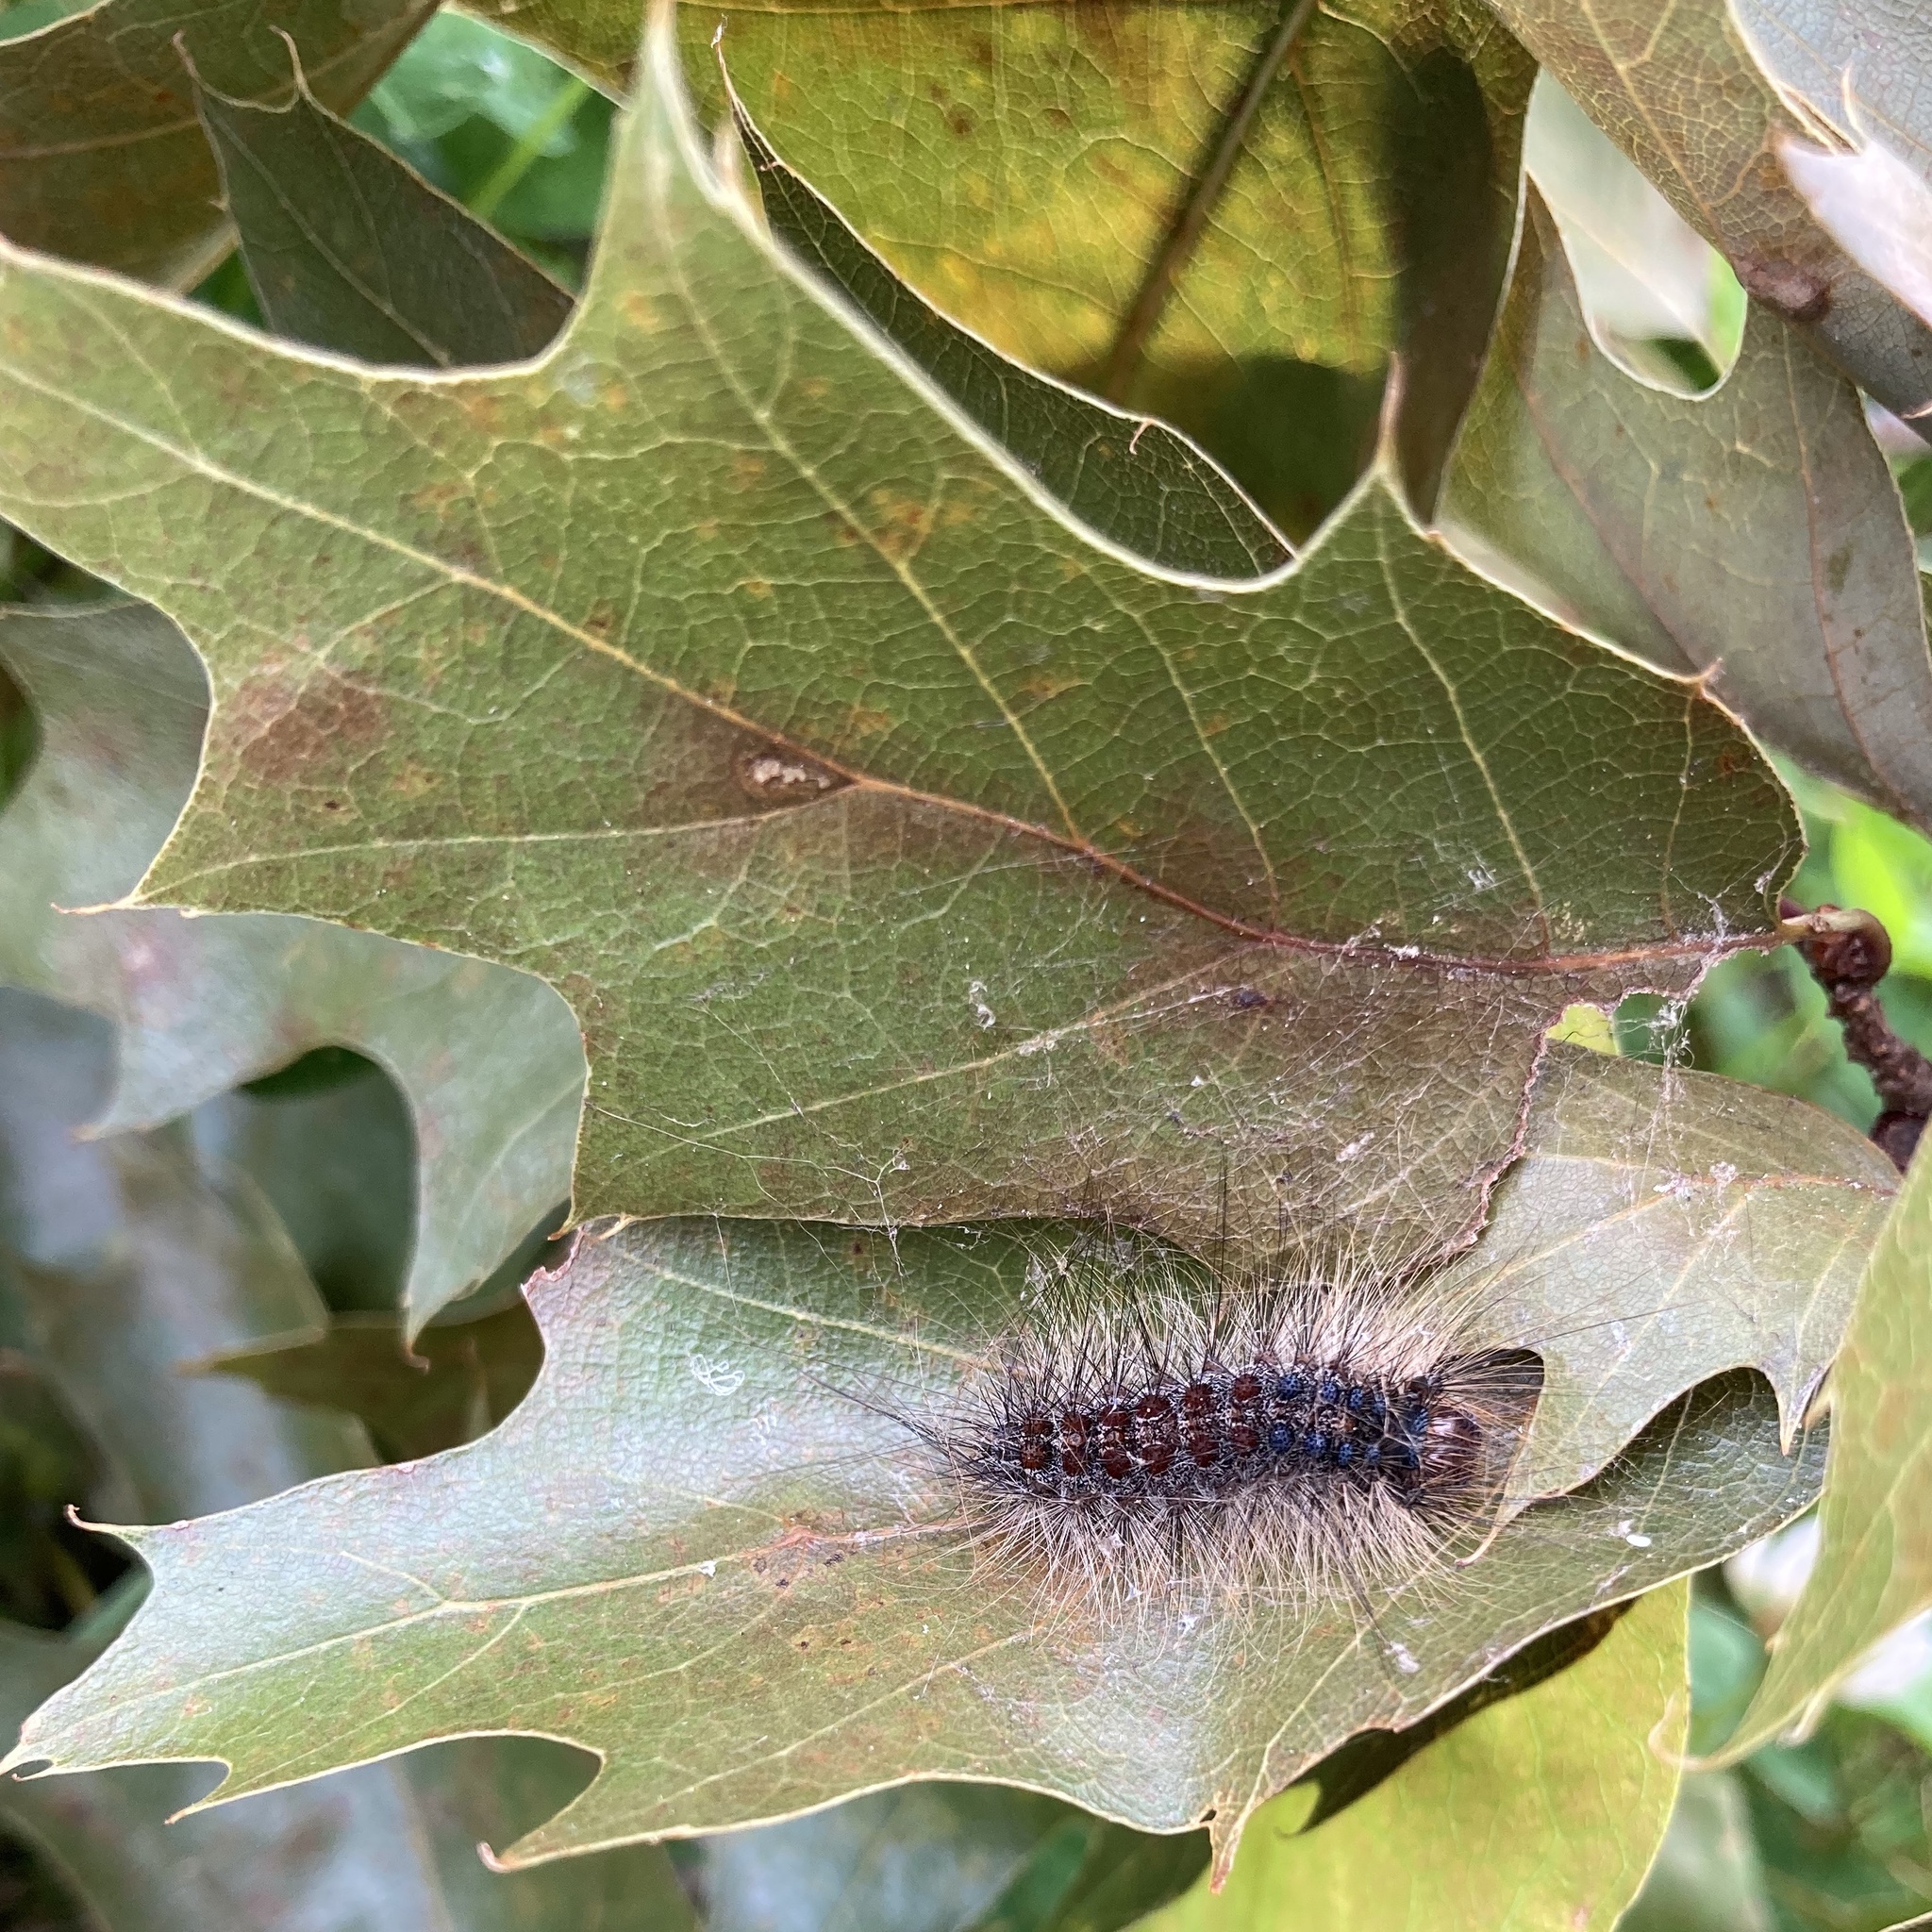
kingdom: Animalia
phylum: Arthropoda
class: Insecta
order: Lepidoptera
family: Erebidae
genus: Lymantria
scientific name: Lymantria dispar
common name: Gypsy moth
